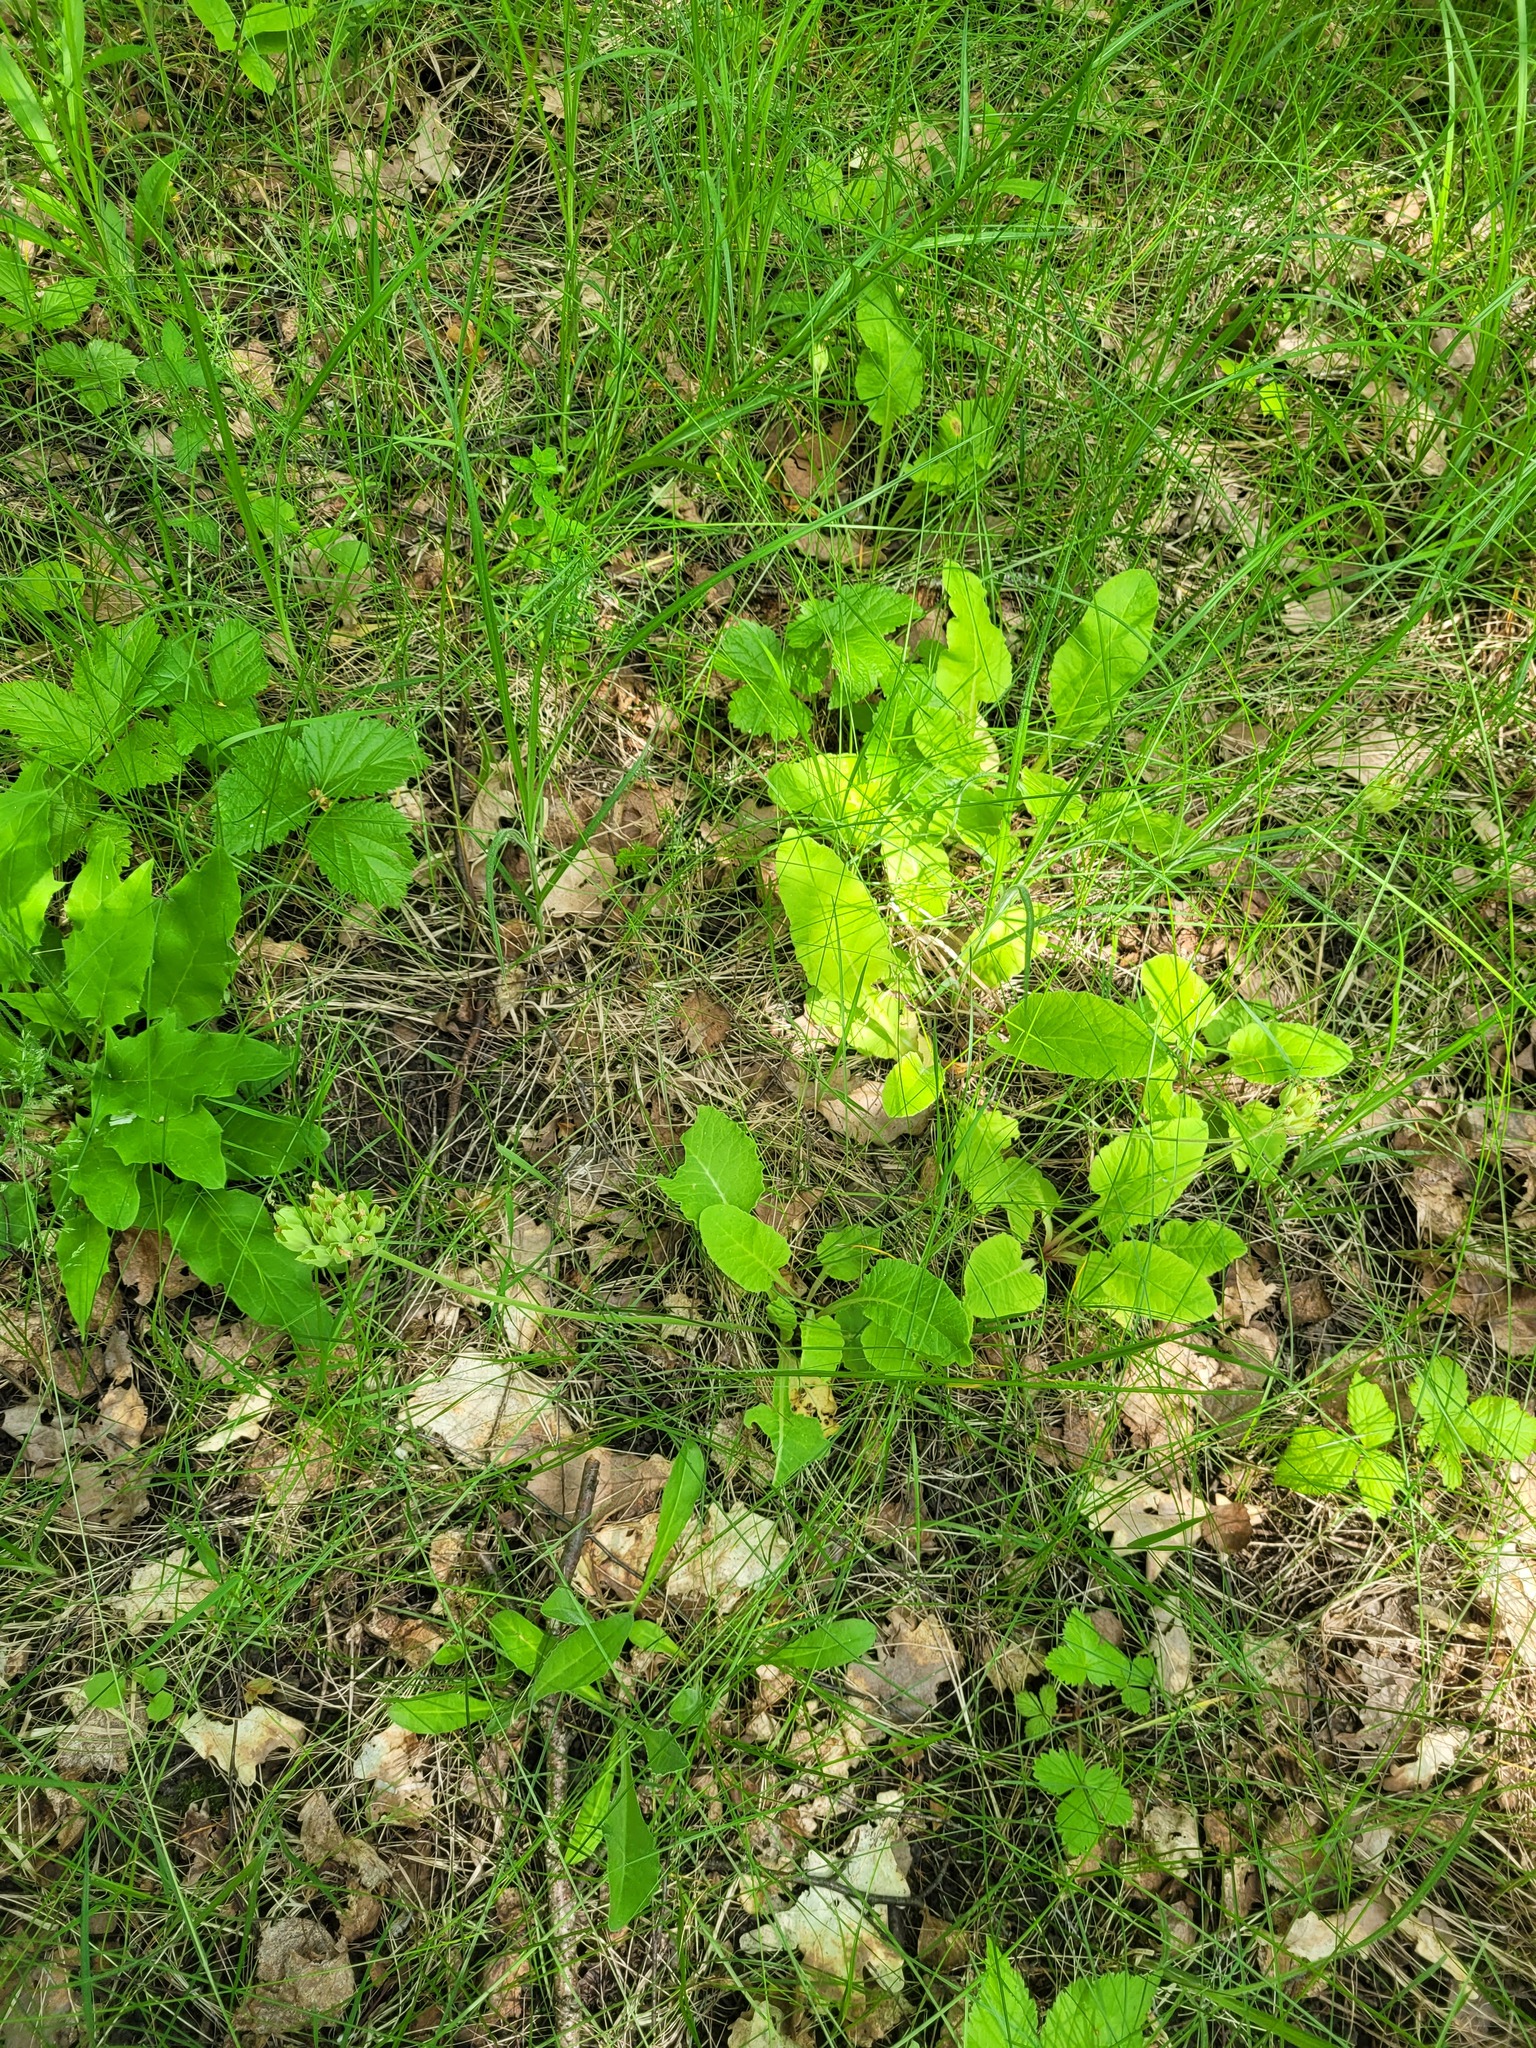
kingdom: Plantae
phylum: Tracheophyta
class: Magnoliopsida
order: Ericales
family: Primulaceae
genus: Primula
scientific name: Primula veris
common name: Cowslip
